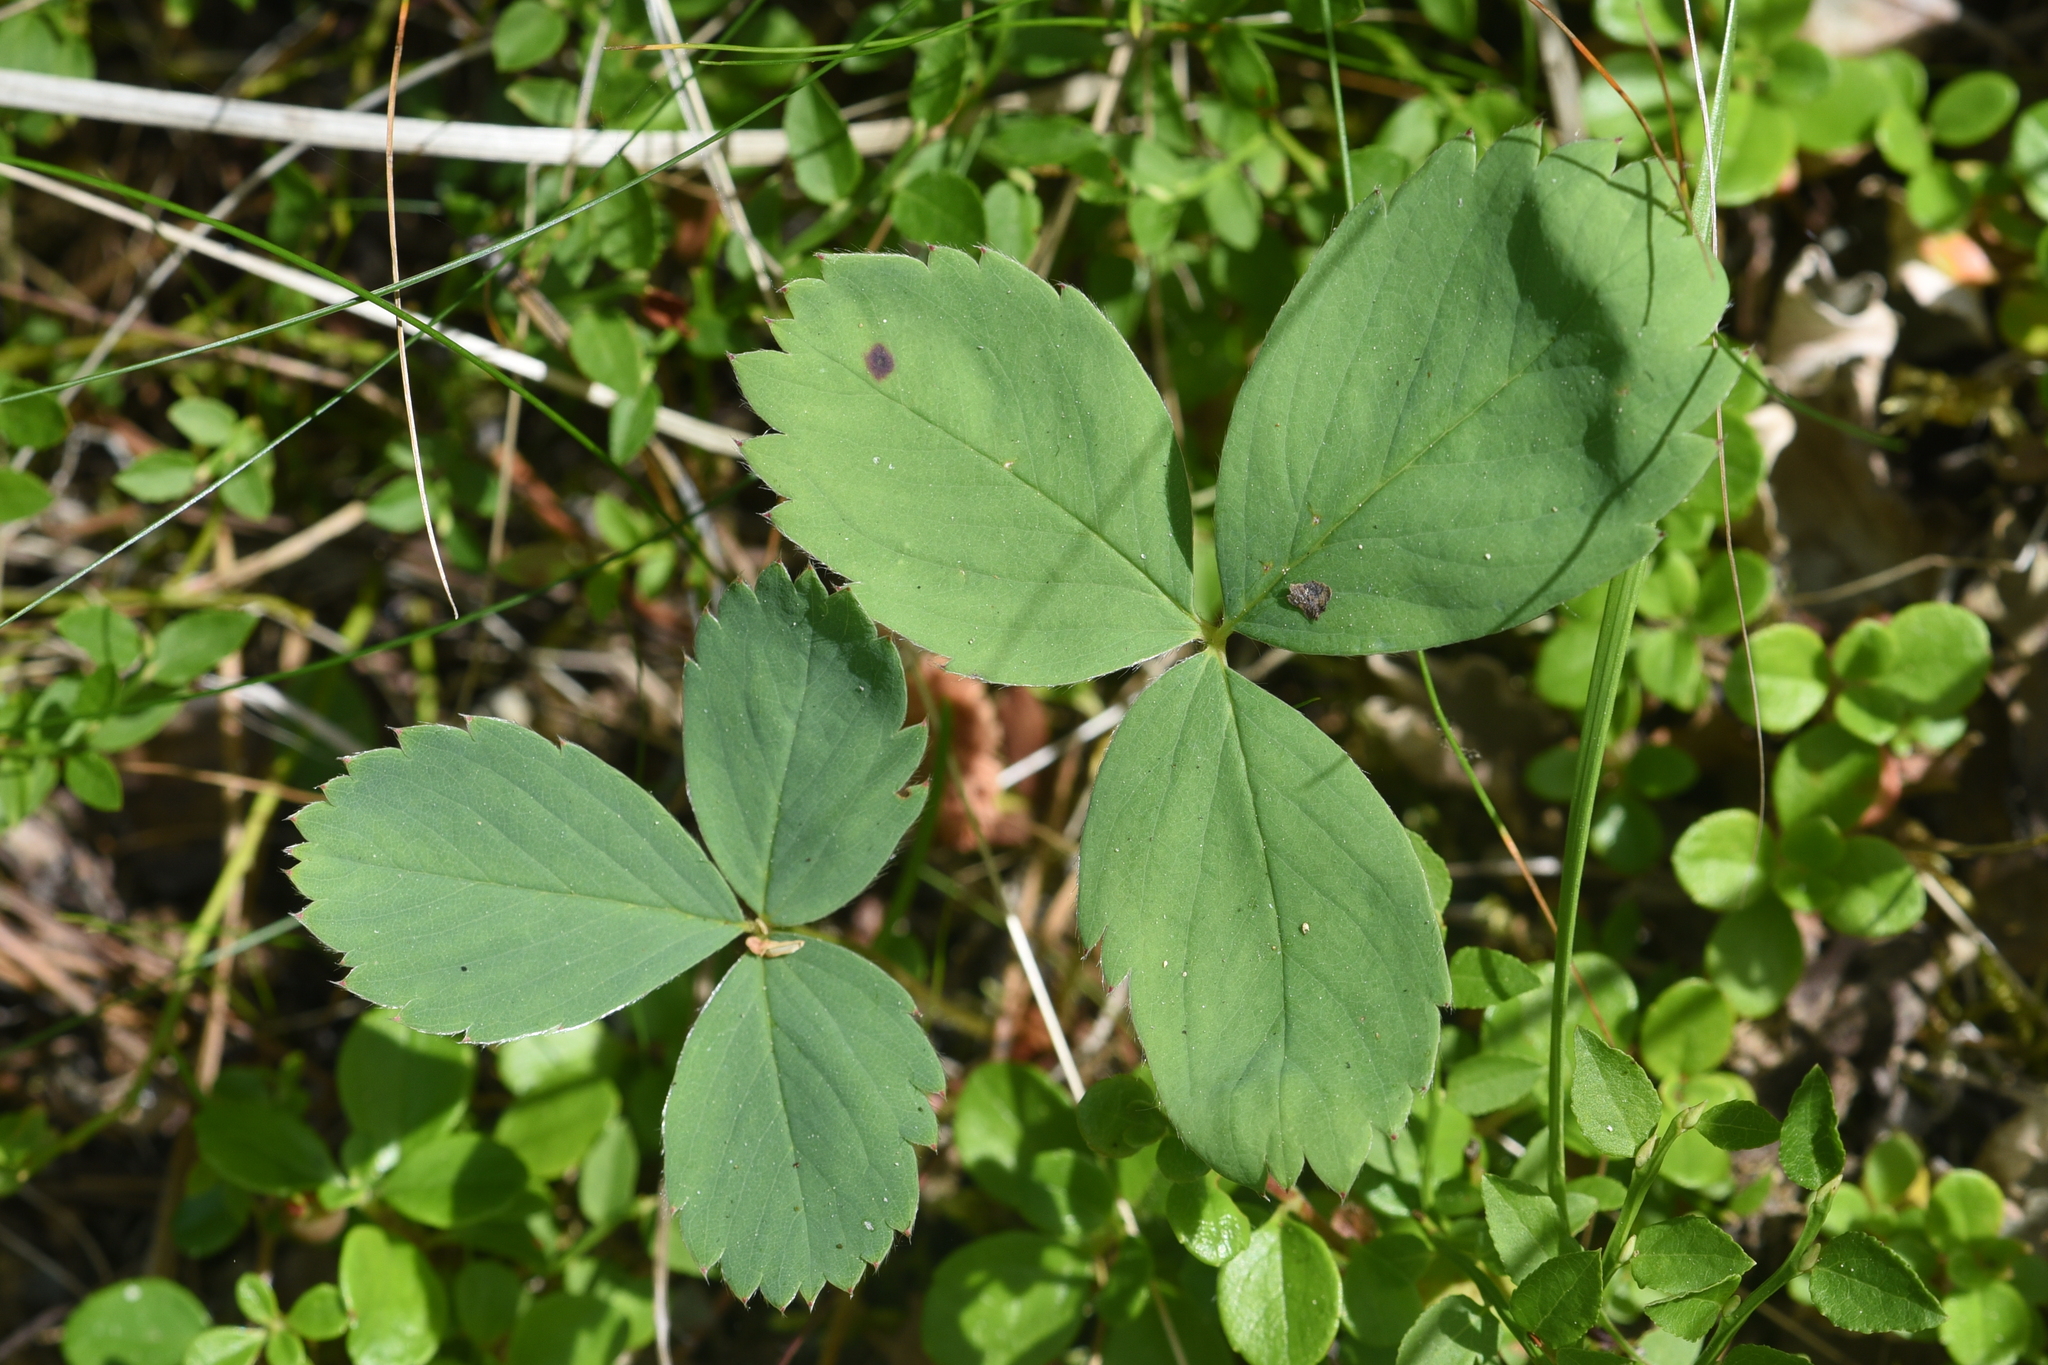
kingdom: Plantae
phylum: Tracheophyta
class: Magnoliopsida
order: Rosales
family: Rosaceae
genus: Fragaria
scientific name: Fragaria virginiana
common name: Thickleaved wild strawberry
